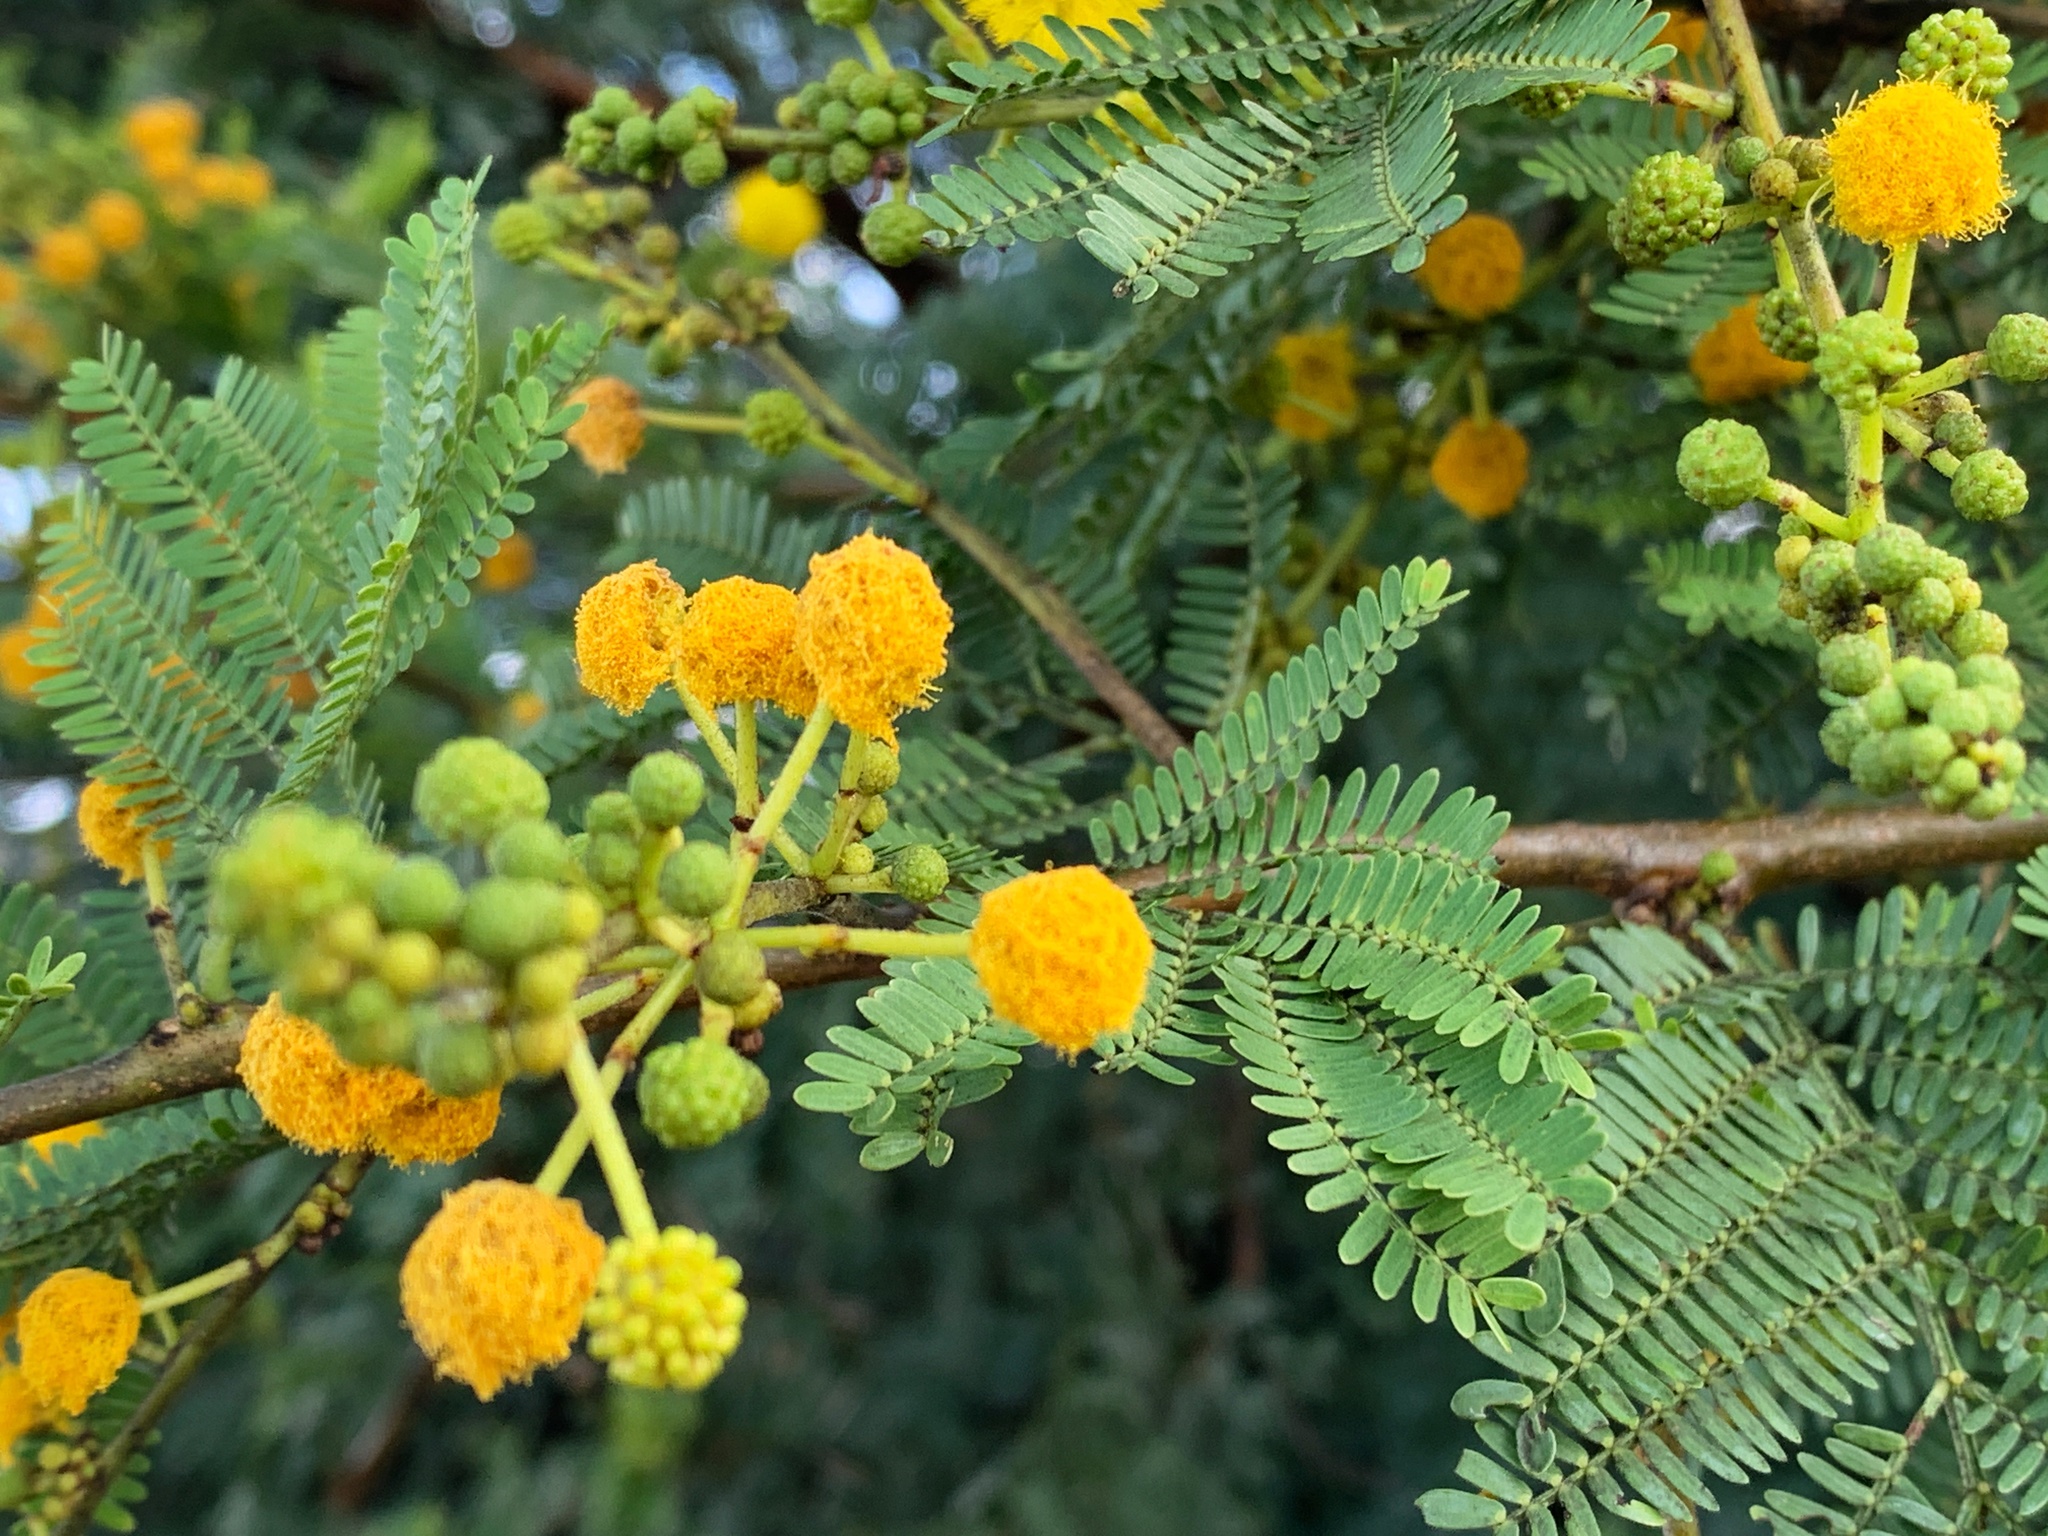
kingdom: Plantae
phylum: Tracheophyta
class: Magnoliopsida
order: Fabales
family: Fabaceae
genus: Vachellia
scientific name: Vachellia karroo
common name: Sweet thorn
